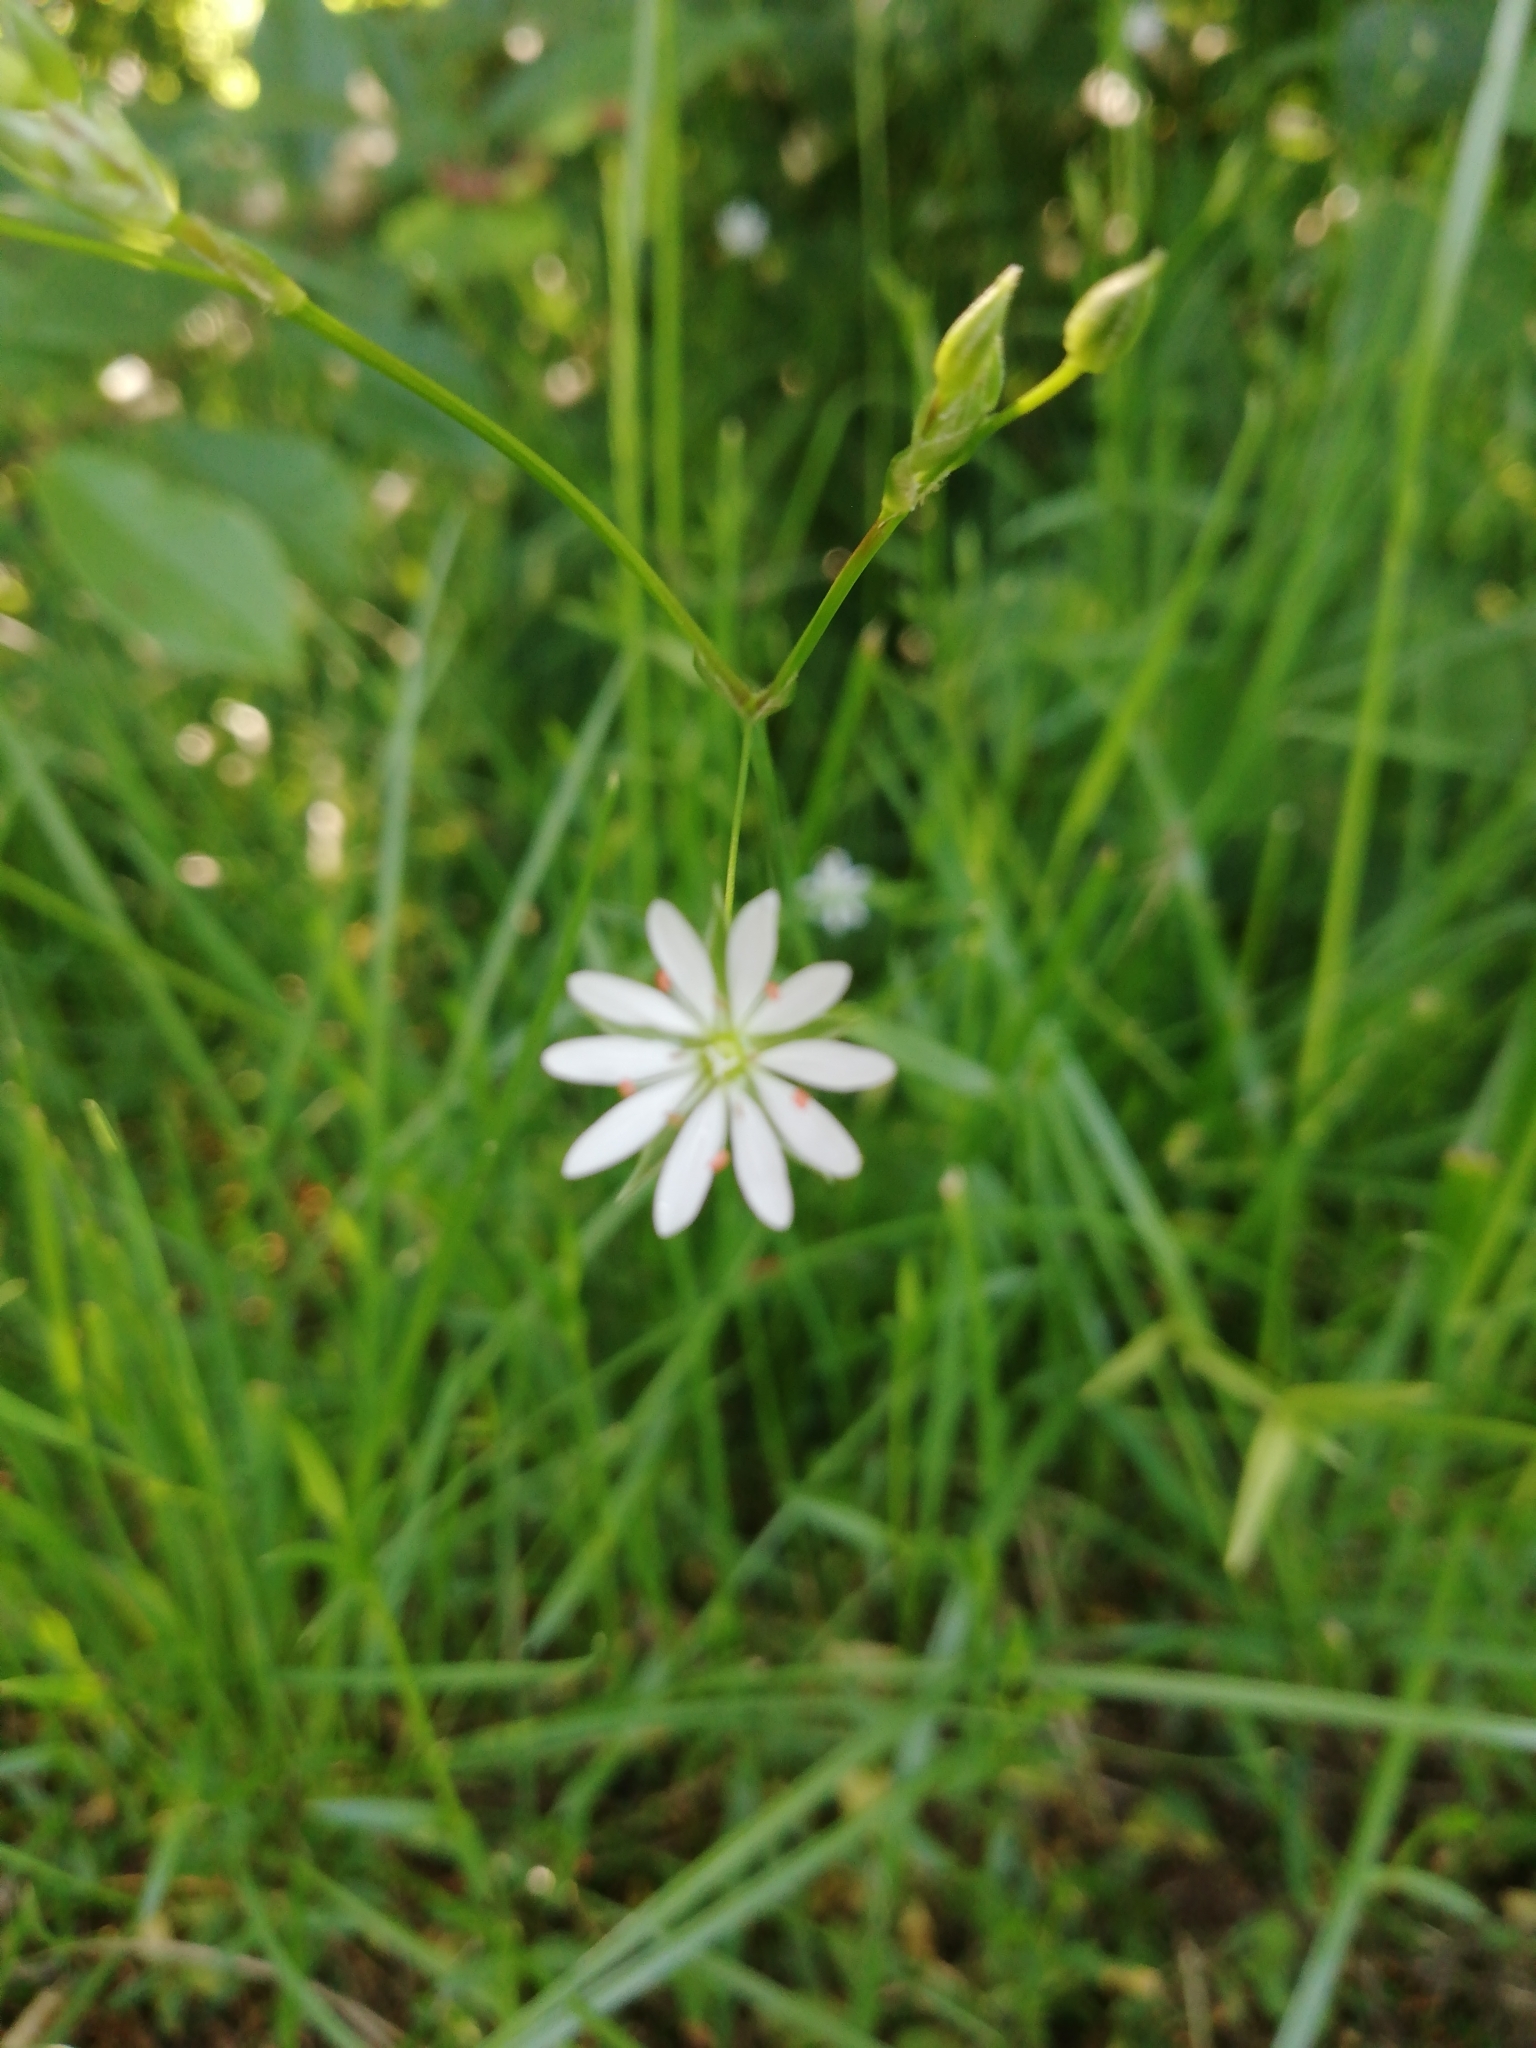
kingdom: Plantae
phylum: Tracheophyta
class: Magnoliopsida
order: Caryophyllales
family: Caryophyllaceae
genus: Stellaria
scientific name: Stellaria graminea
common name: Grass-like starwort
